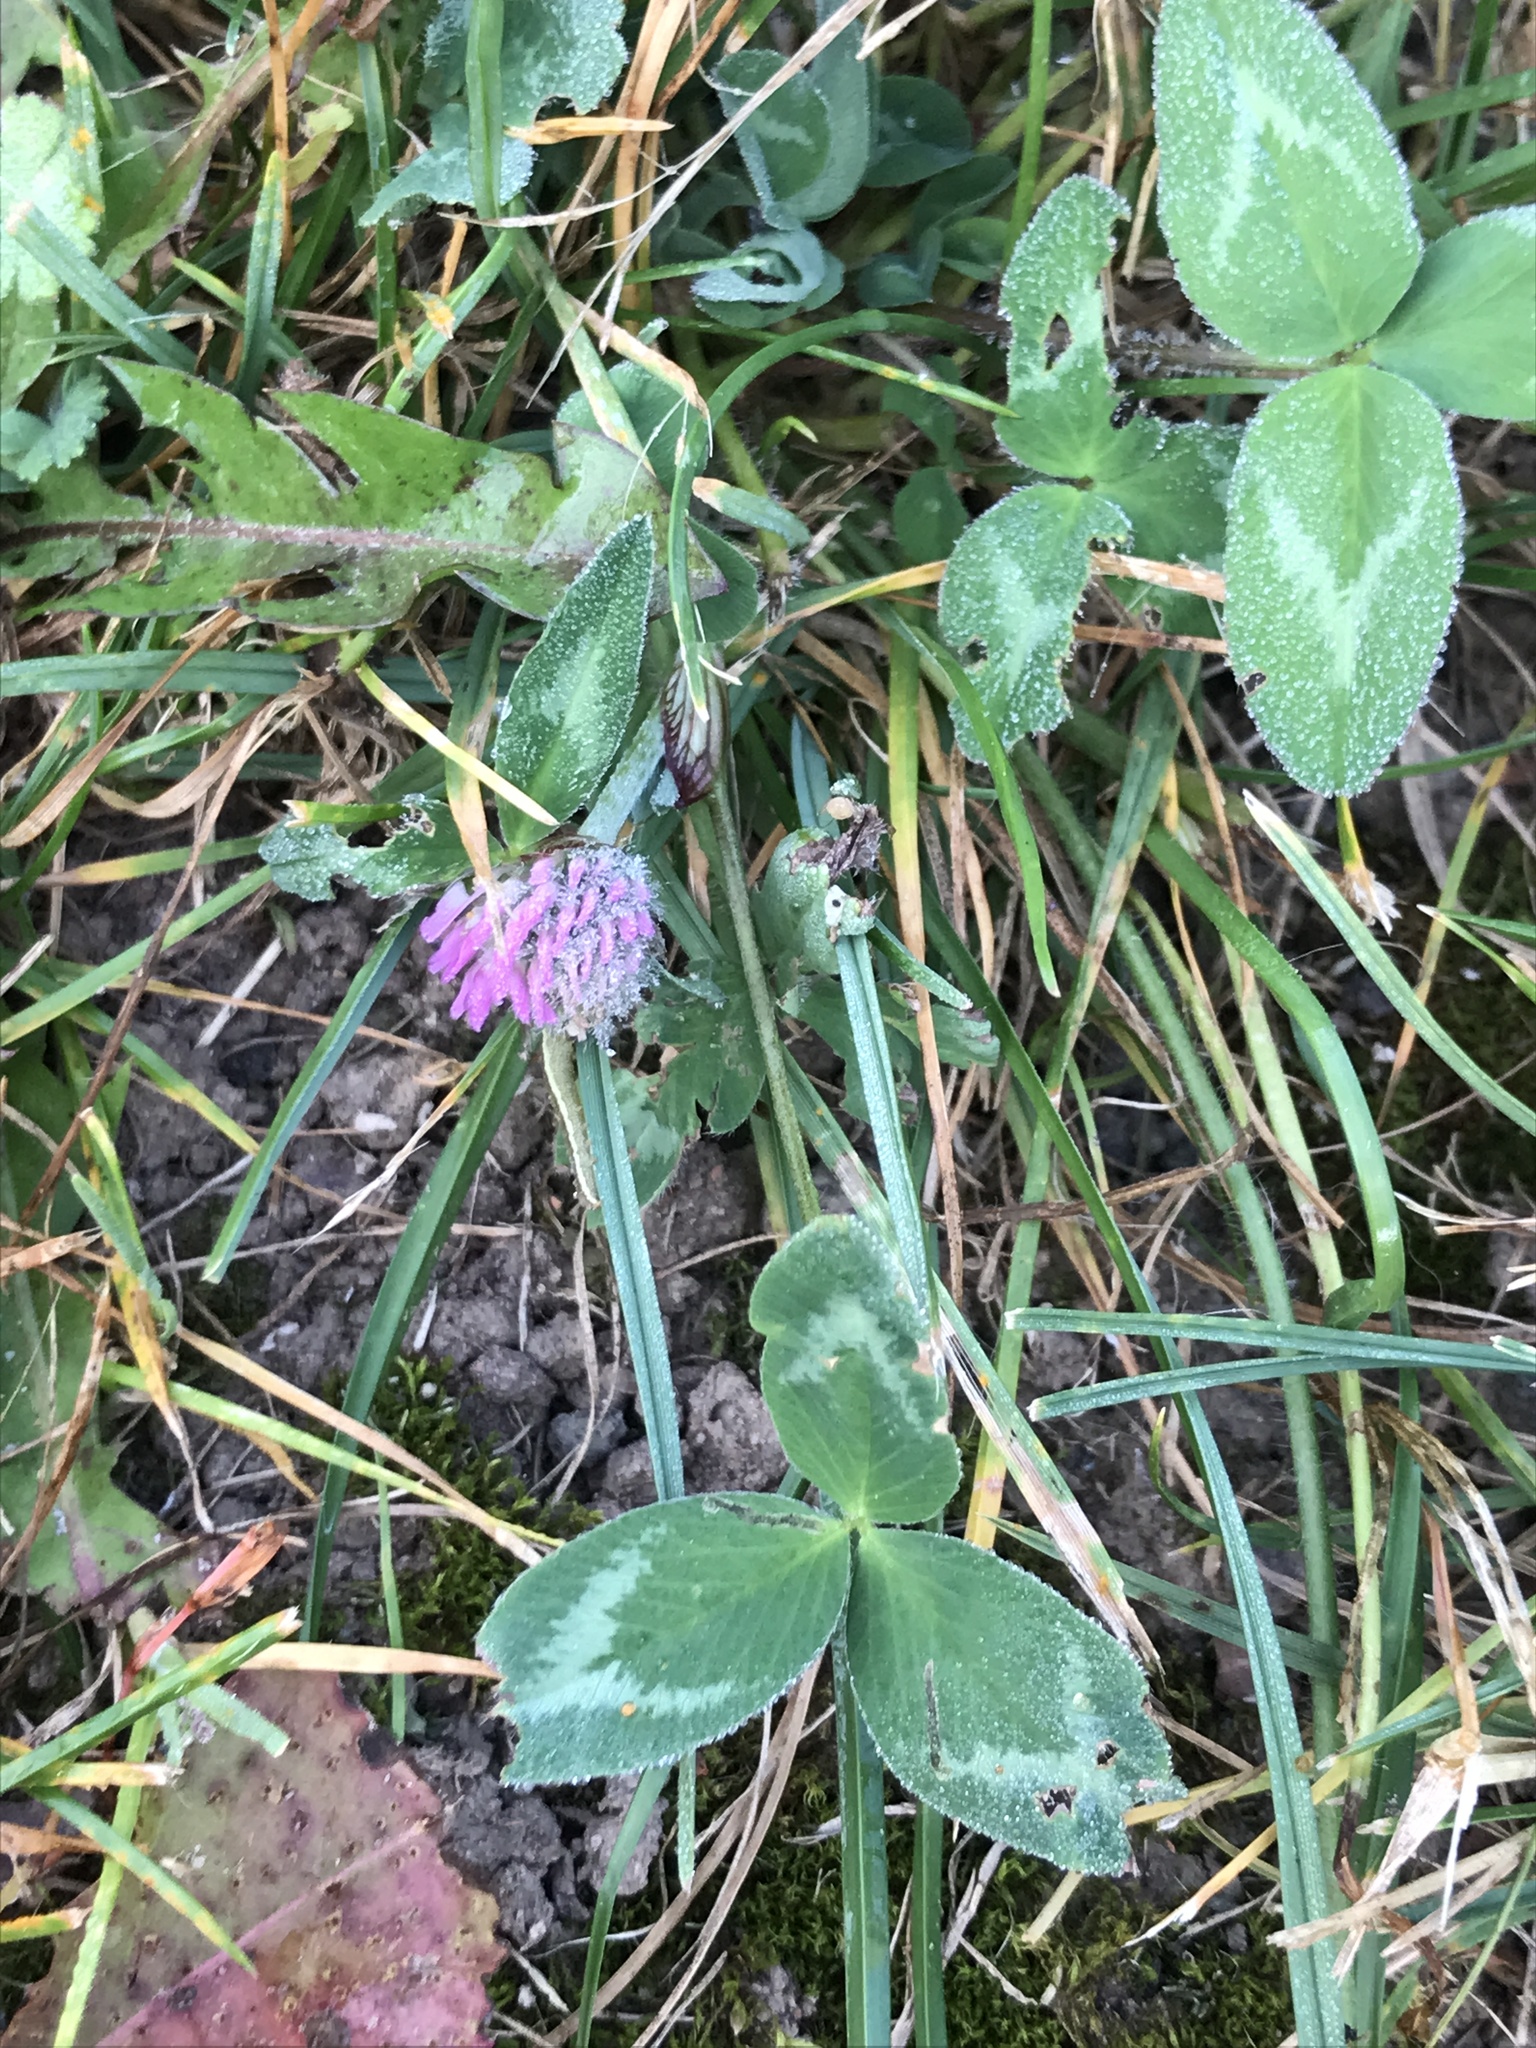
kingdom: Plantae
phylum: Tracheophyta
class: Magnoliopsida
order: Fabales
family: Fabaceae
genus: Trifolium
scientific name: Trifolium pratense
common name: Red clover
